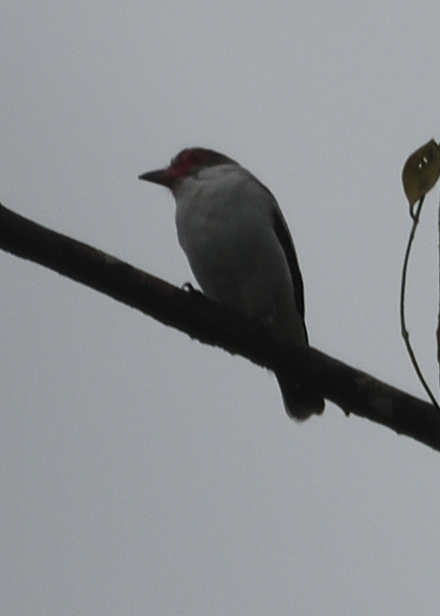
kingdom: Animalia
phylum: Chordata
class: Aves
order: Passeriformes
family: Cotingidae
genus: Tityra
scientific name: Tityra semifasciata
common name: Masked tityra
